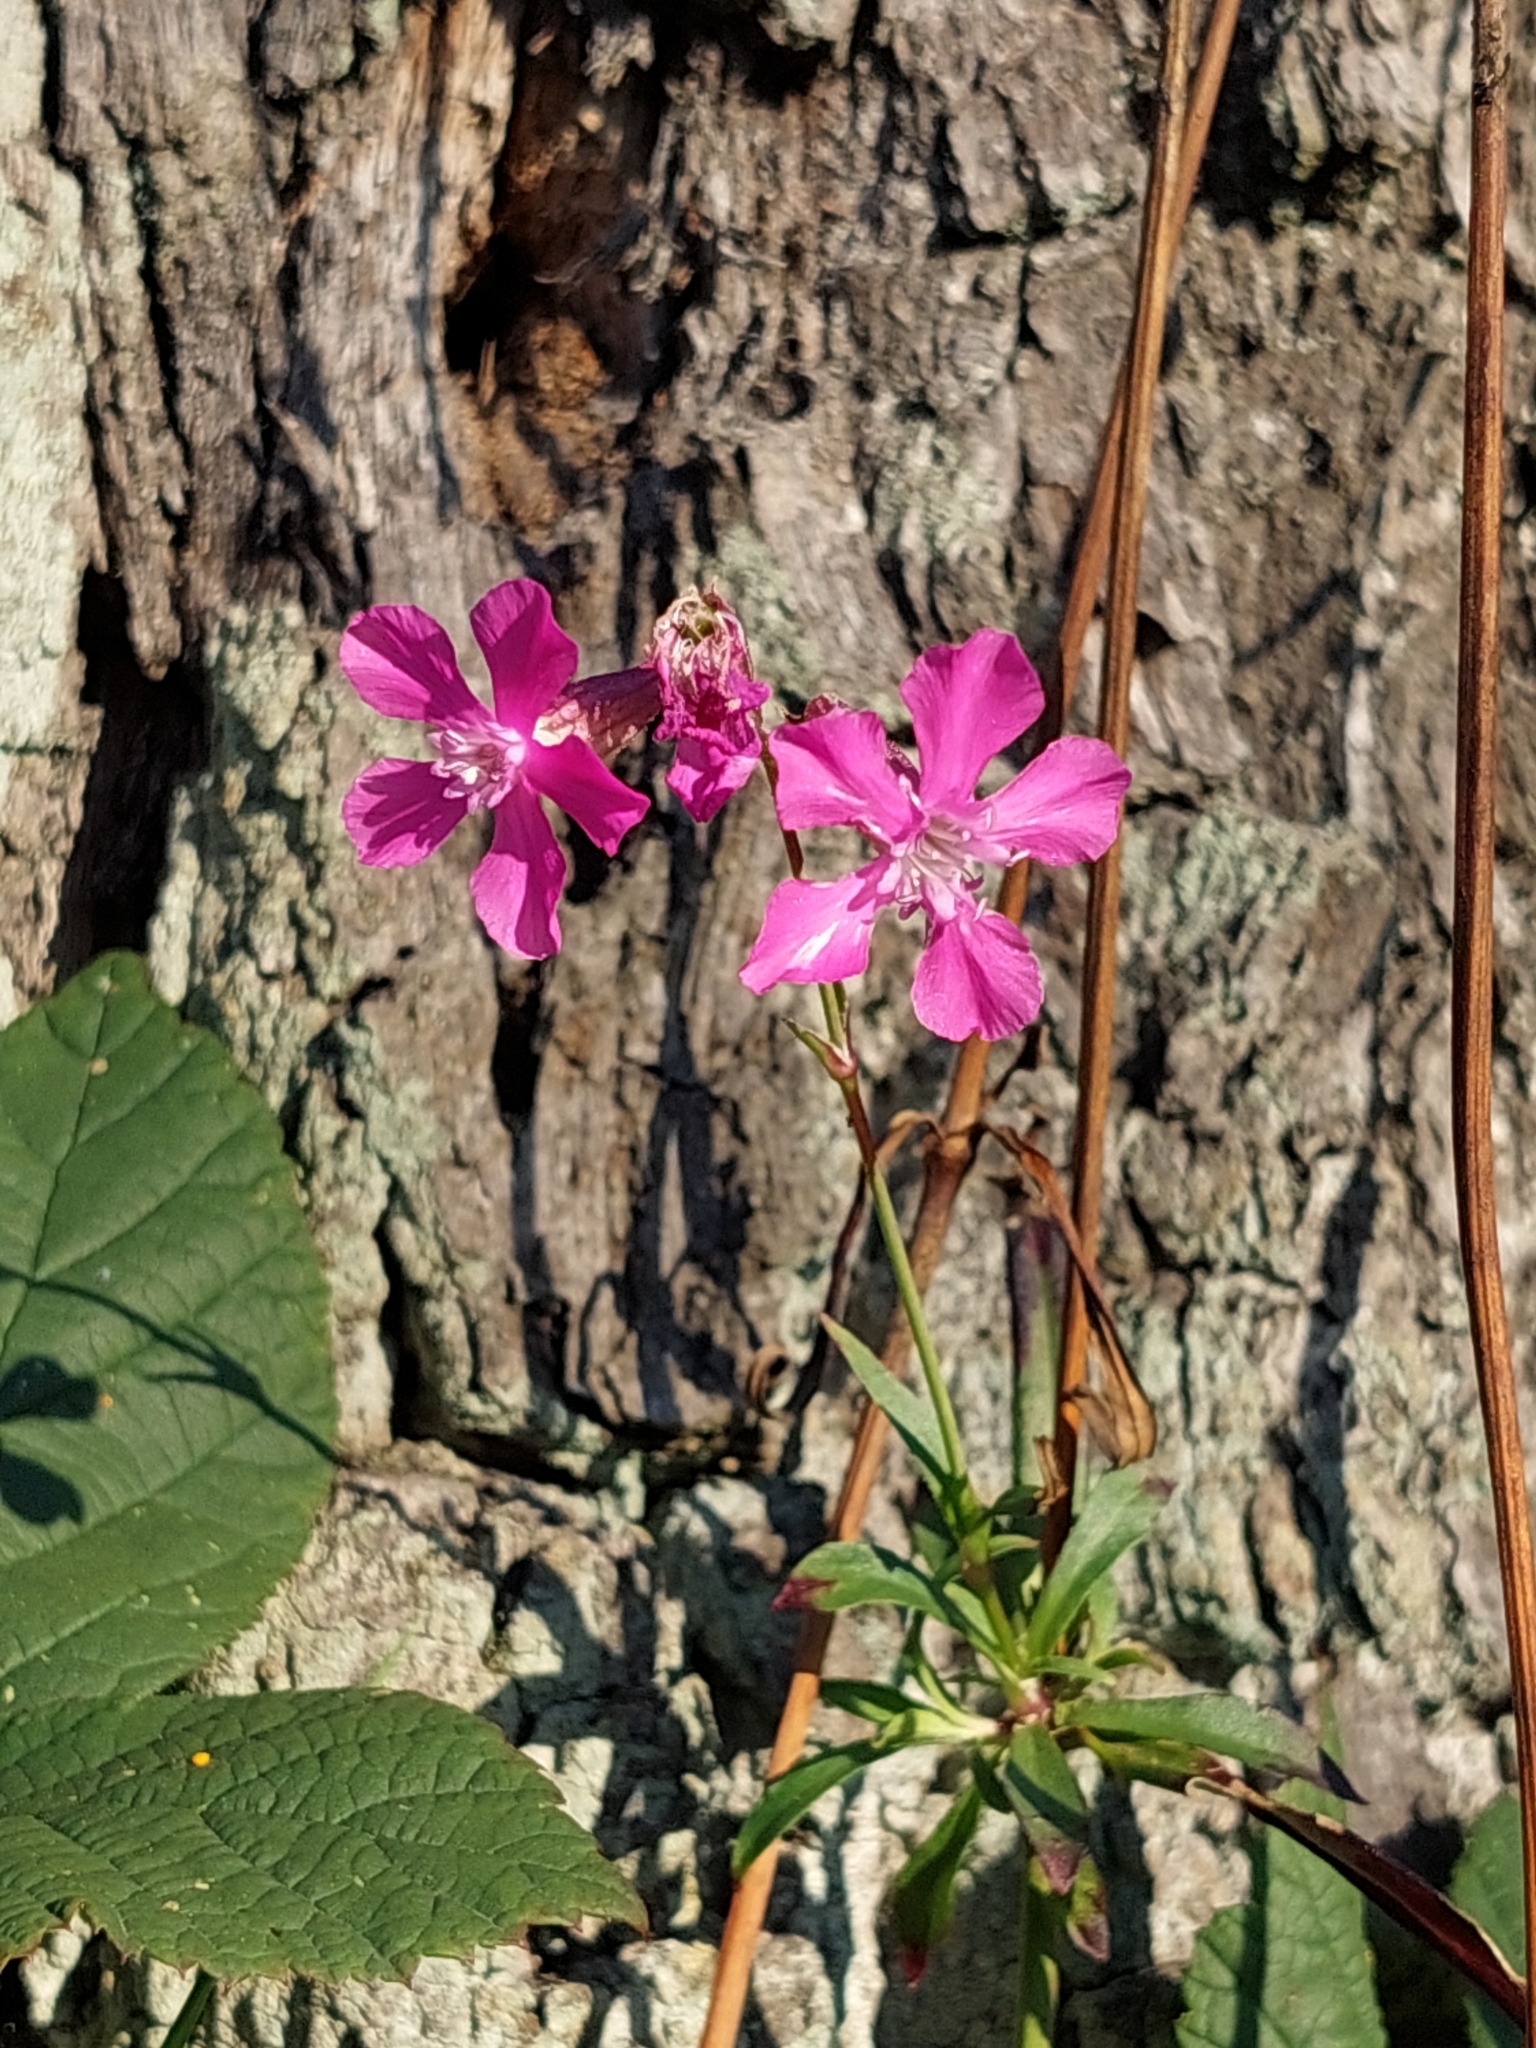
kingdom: Plantae
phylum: Tracheophyta
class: Magnoliopsida
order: Caryophyllales
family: Caryophyllaceae
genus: Viscaria
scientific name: Viscaria vulgaris
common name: Clammy campion
